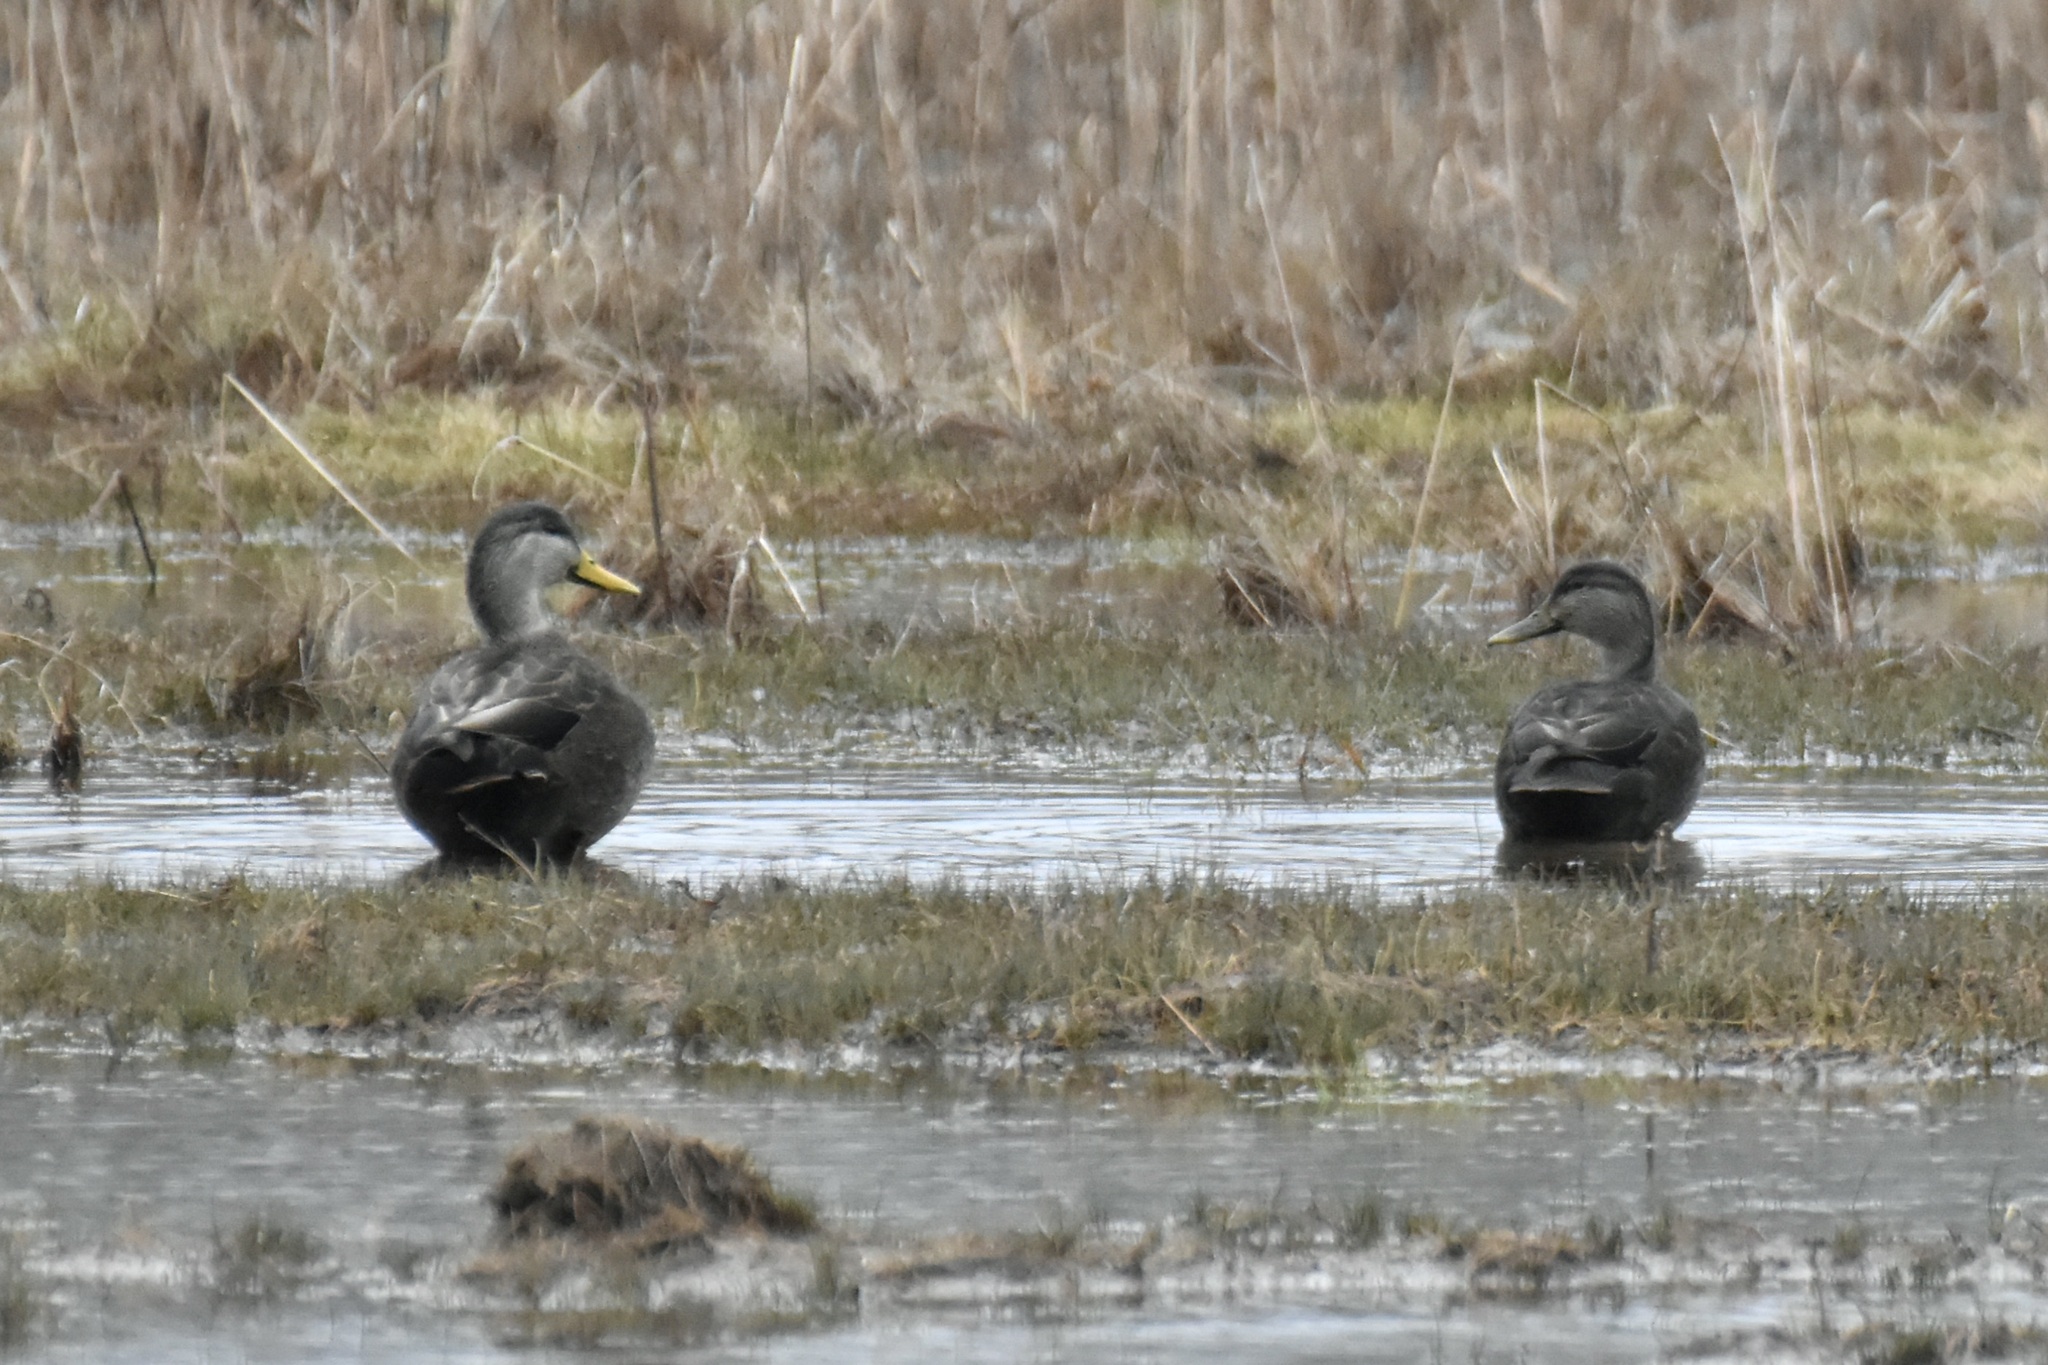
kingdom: Animalia
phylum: Chordata
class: Aves
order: Anseriformes
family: Anatidae
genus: Anas
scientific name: Anas rubripes
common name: American black duck
